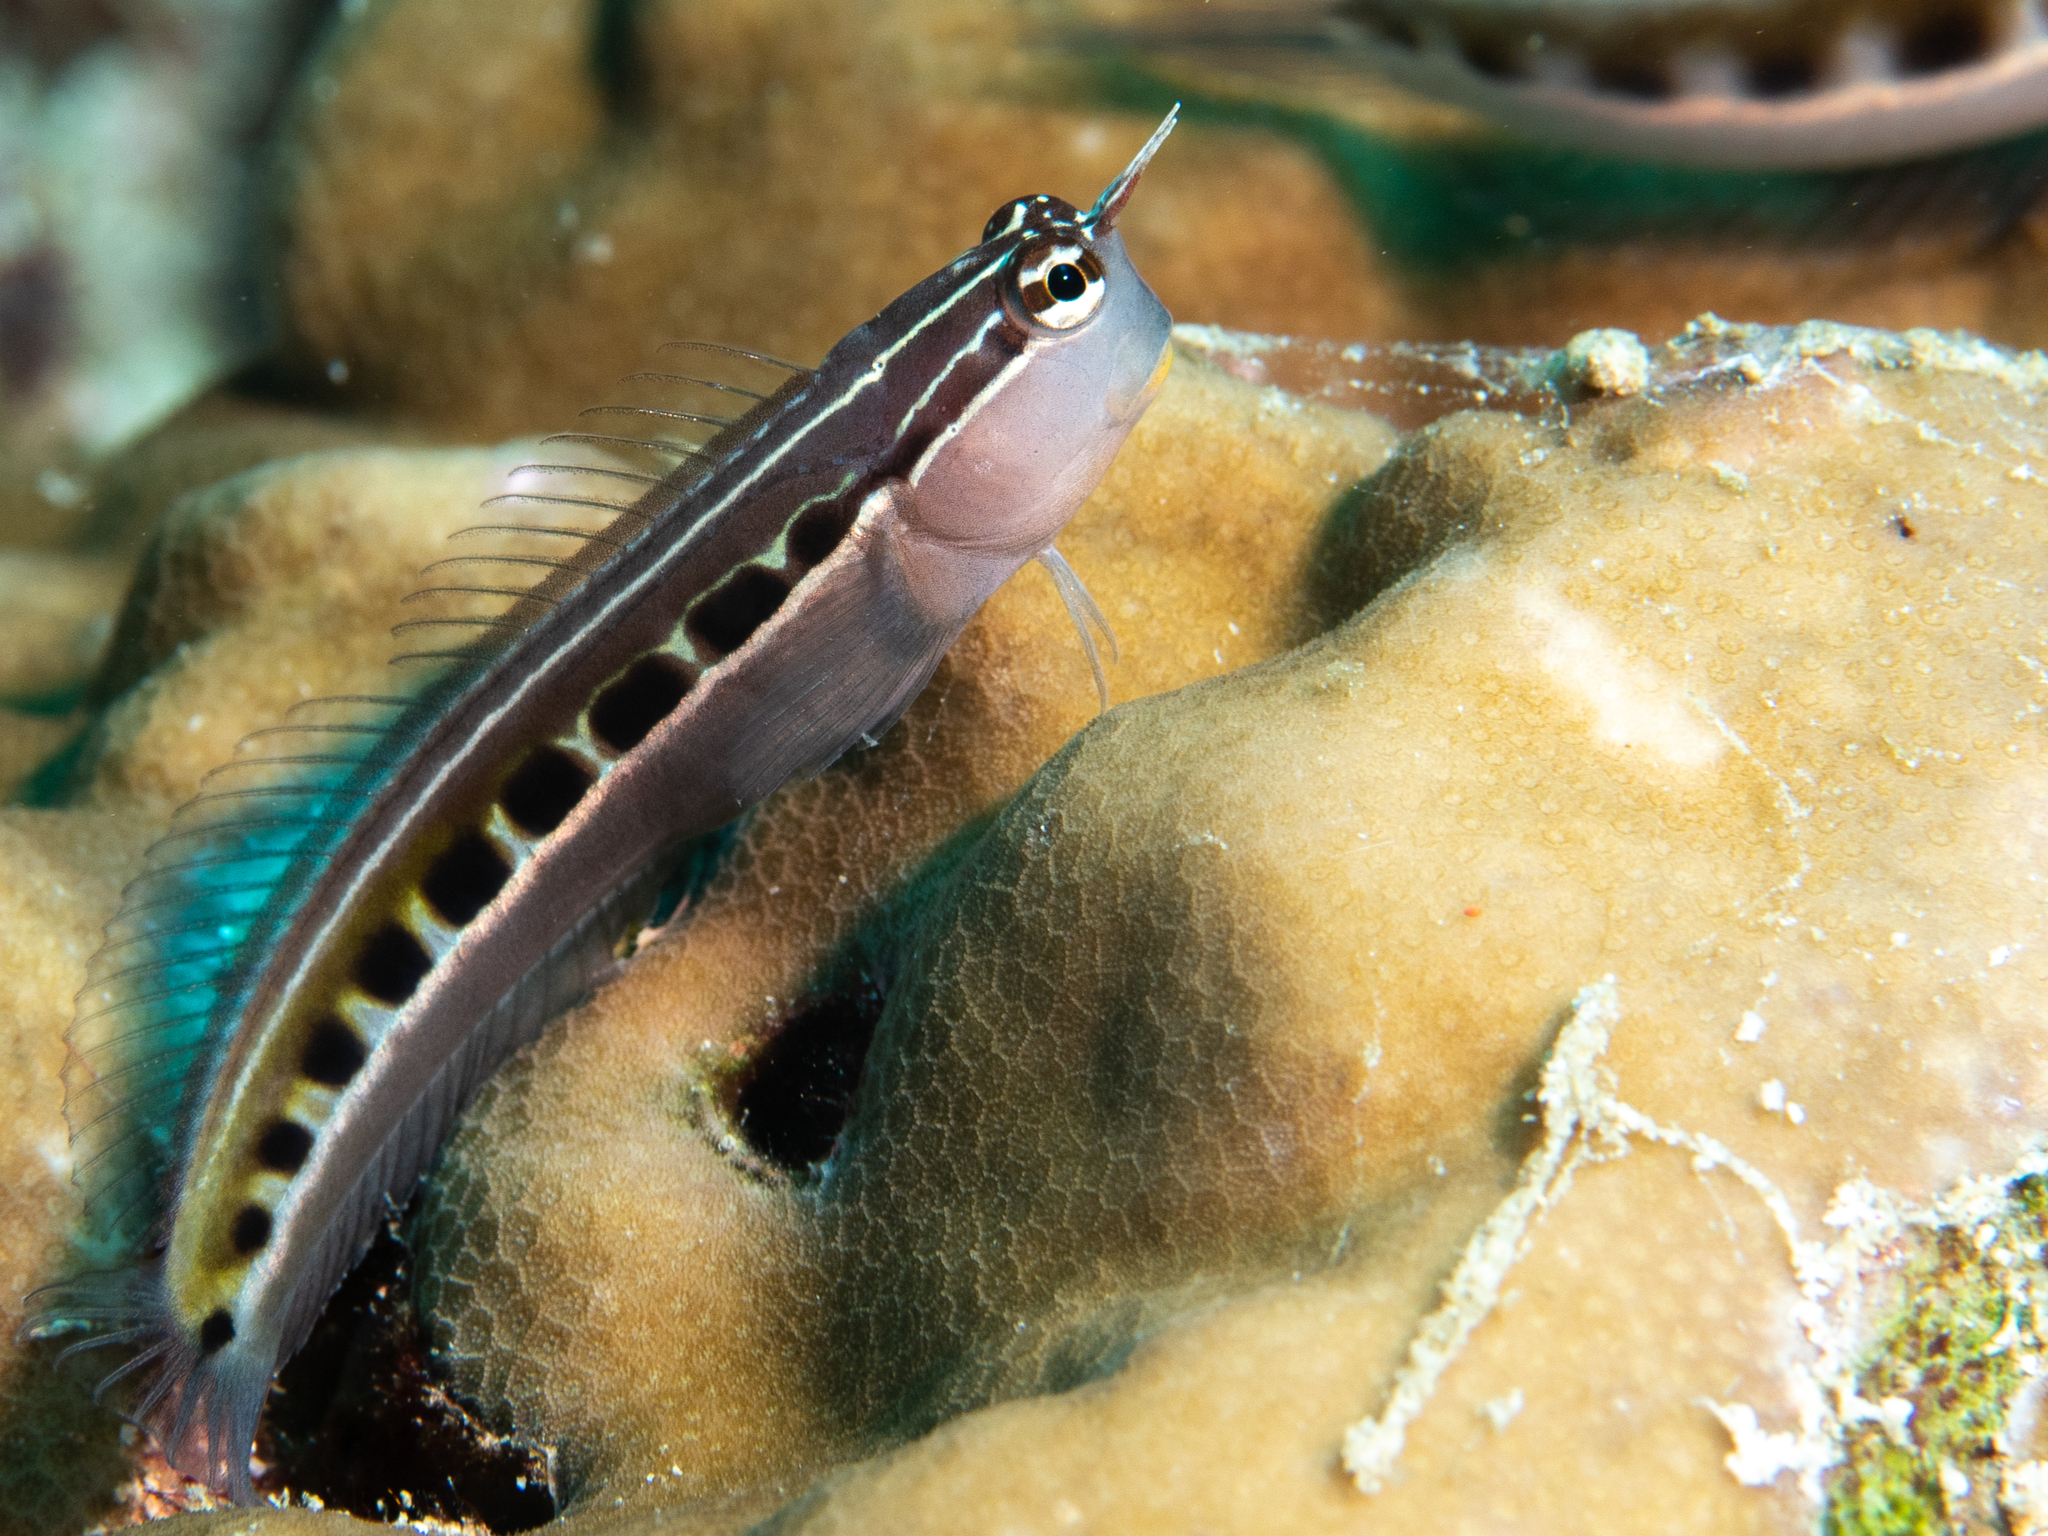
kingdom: Animalia
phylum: Chordata
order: Perciformes
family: Blenniidae
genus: Ecsenius
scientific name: Ecsenius lineatus
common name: Linear blenny
